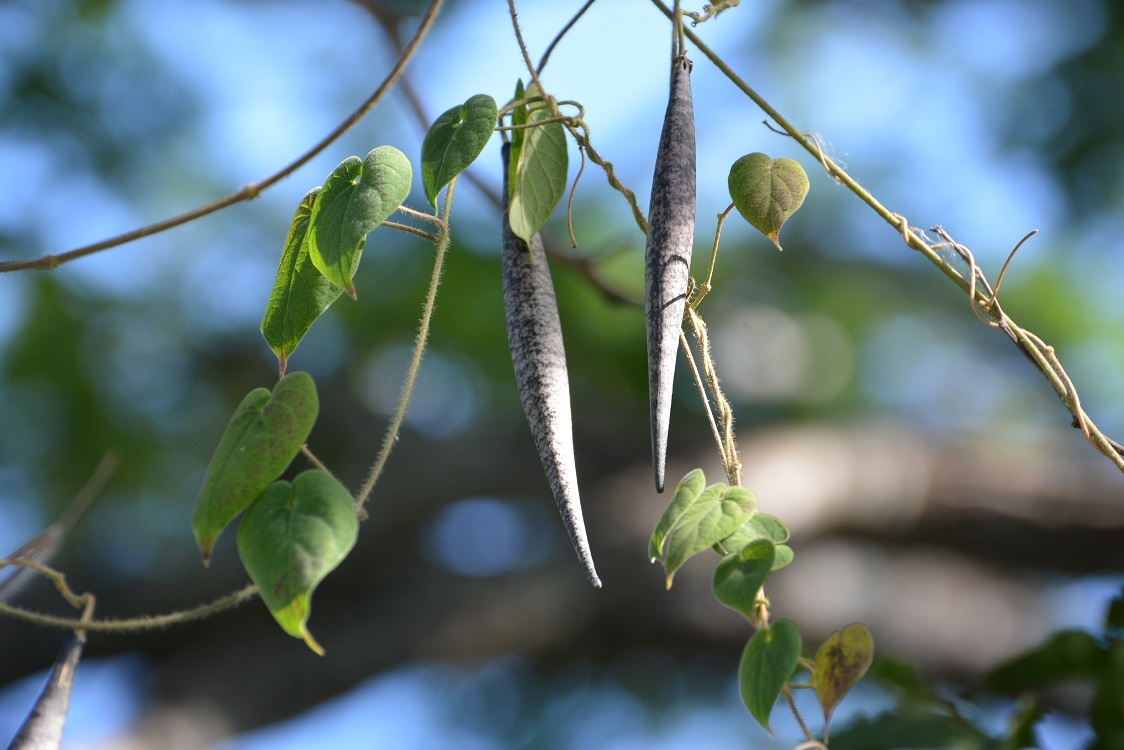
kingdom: Plantae
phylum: Tracheophyta
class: Magnoliopsida
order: Gentianales
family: Apocynaceae
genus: Matelea
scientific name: Matelea velutinoides
